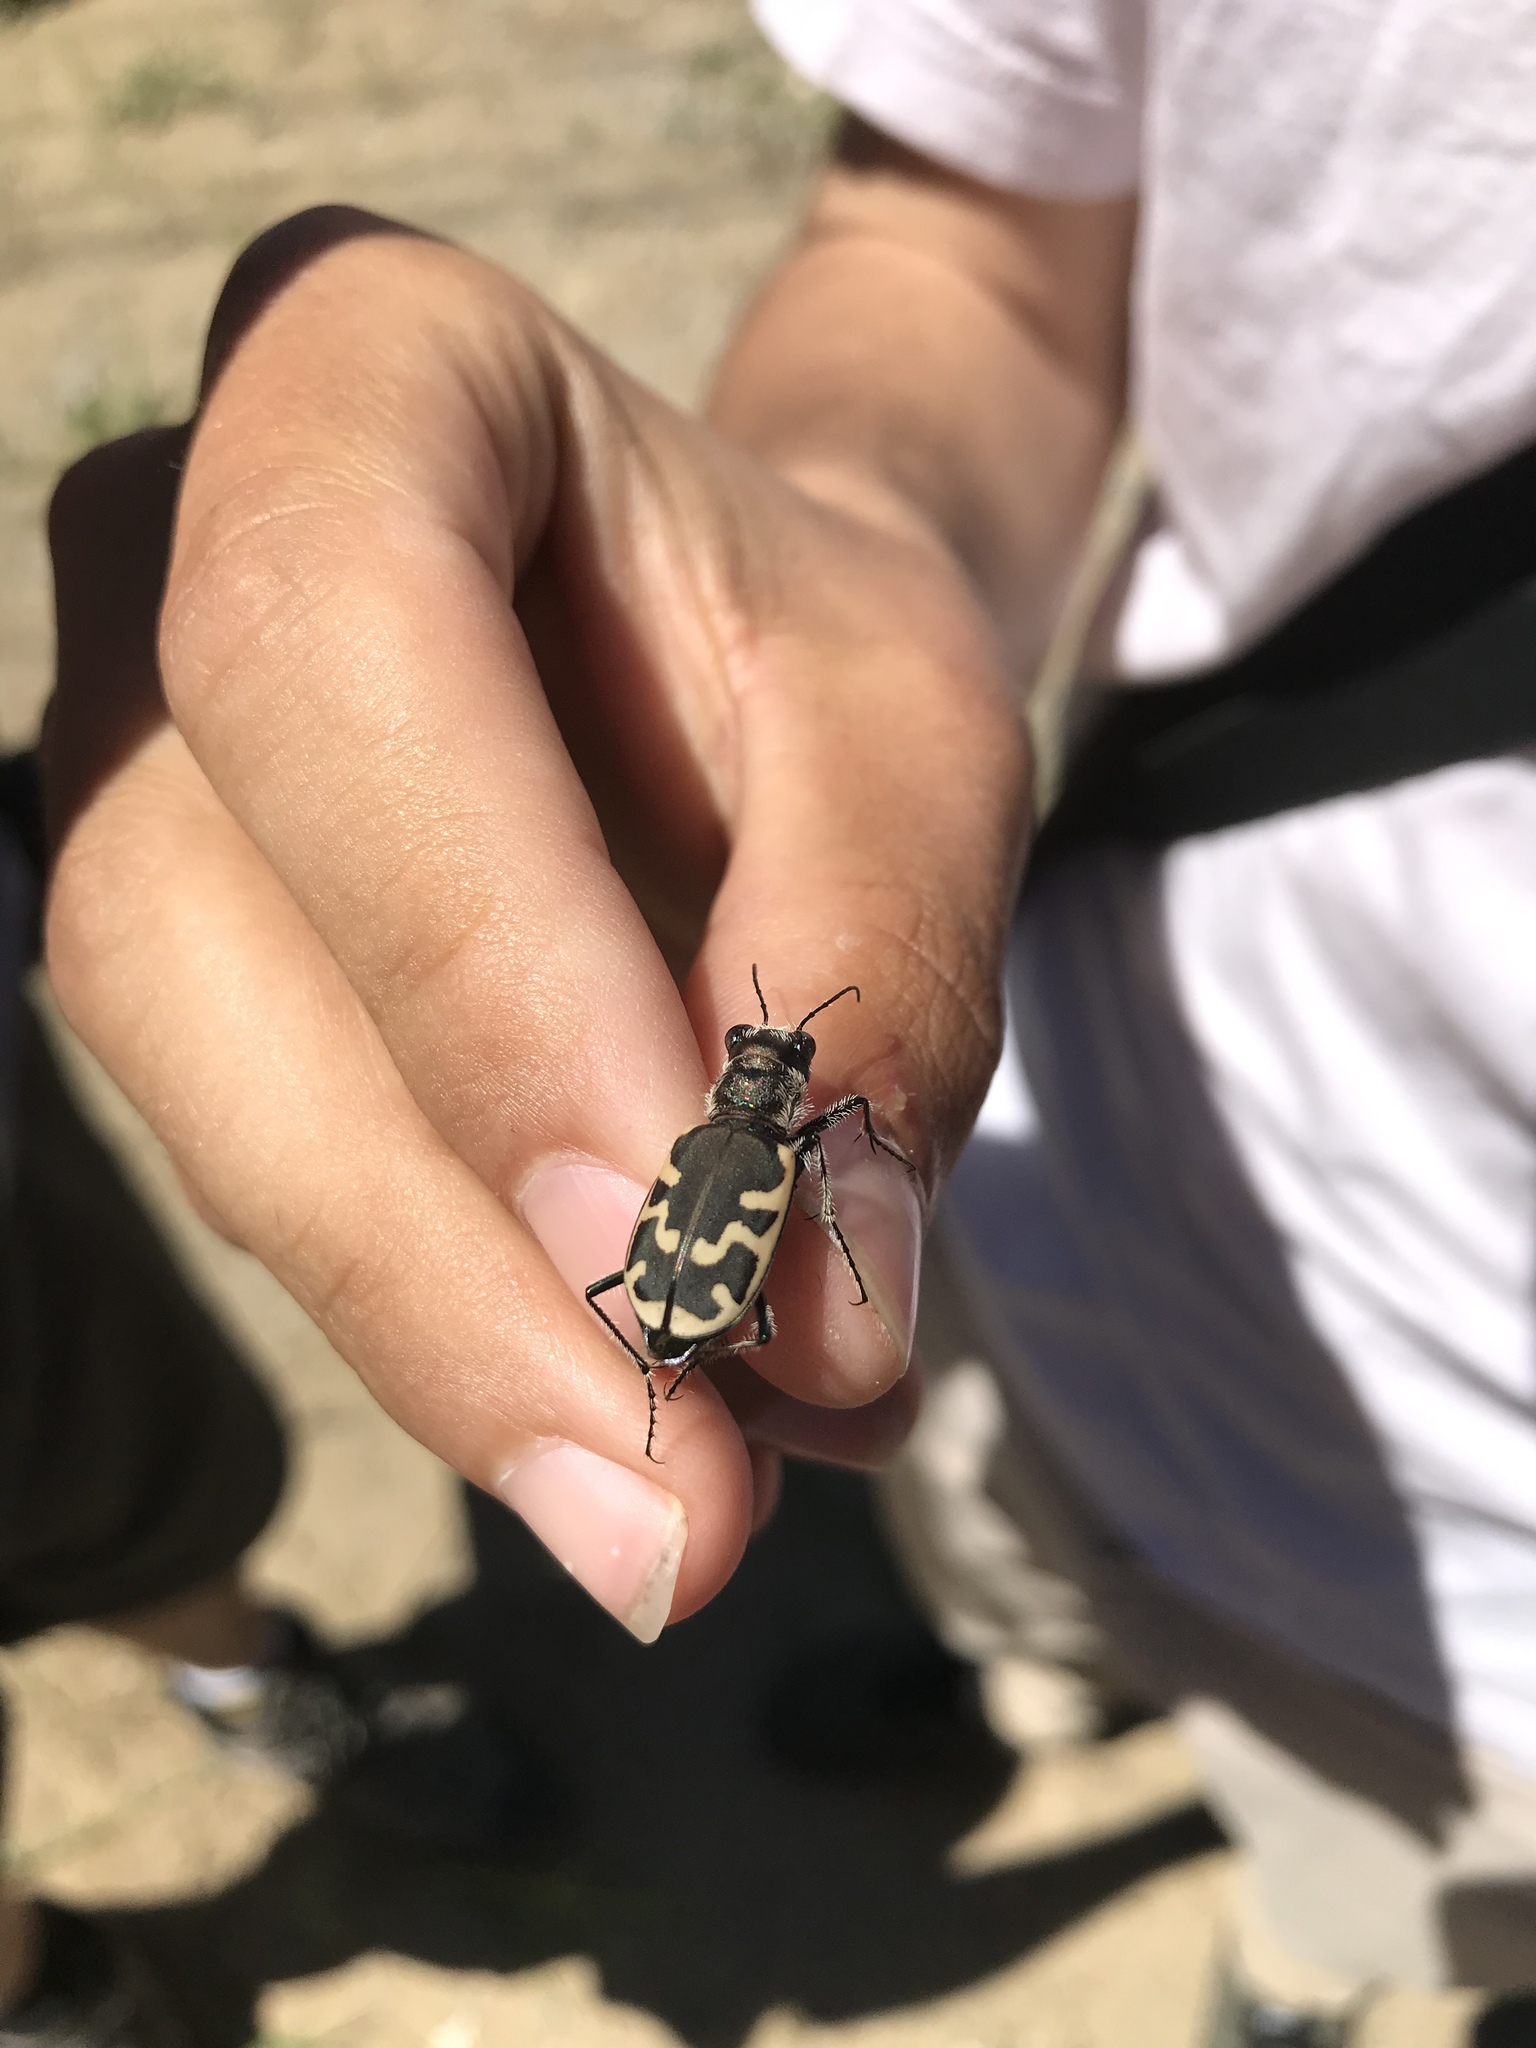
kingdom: Animalia
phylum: Arthropoda
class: Insecta
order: Coleoptera
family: Carabidae
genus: Cicindela
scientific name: Cicindela formosa
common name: Big sand tiger beetle
